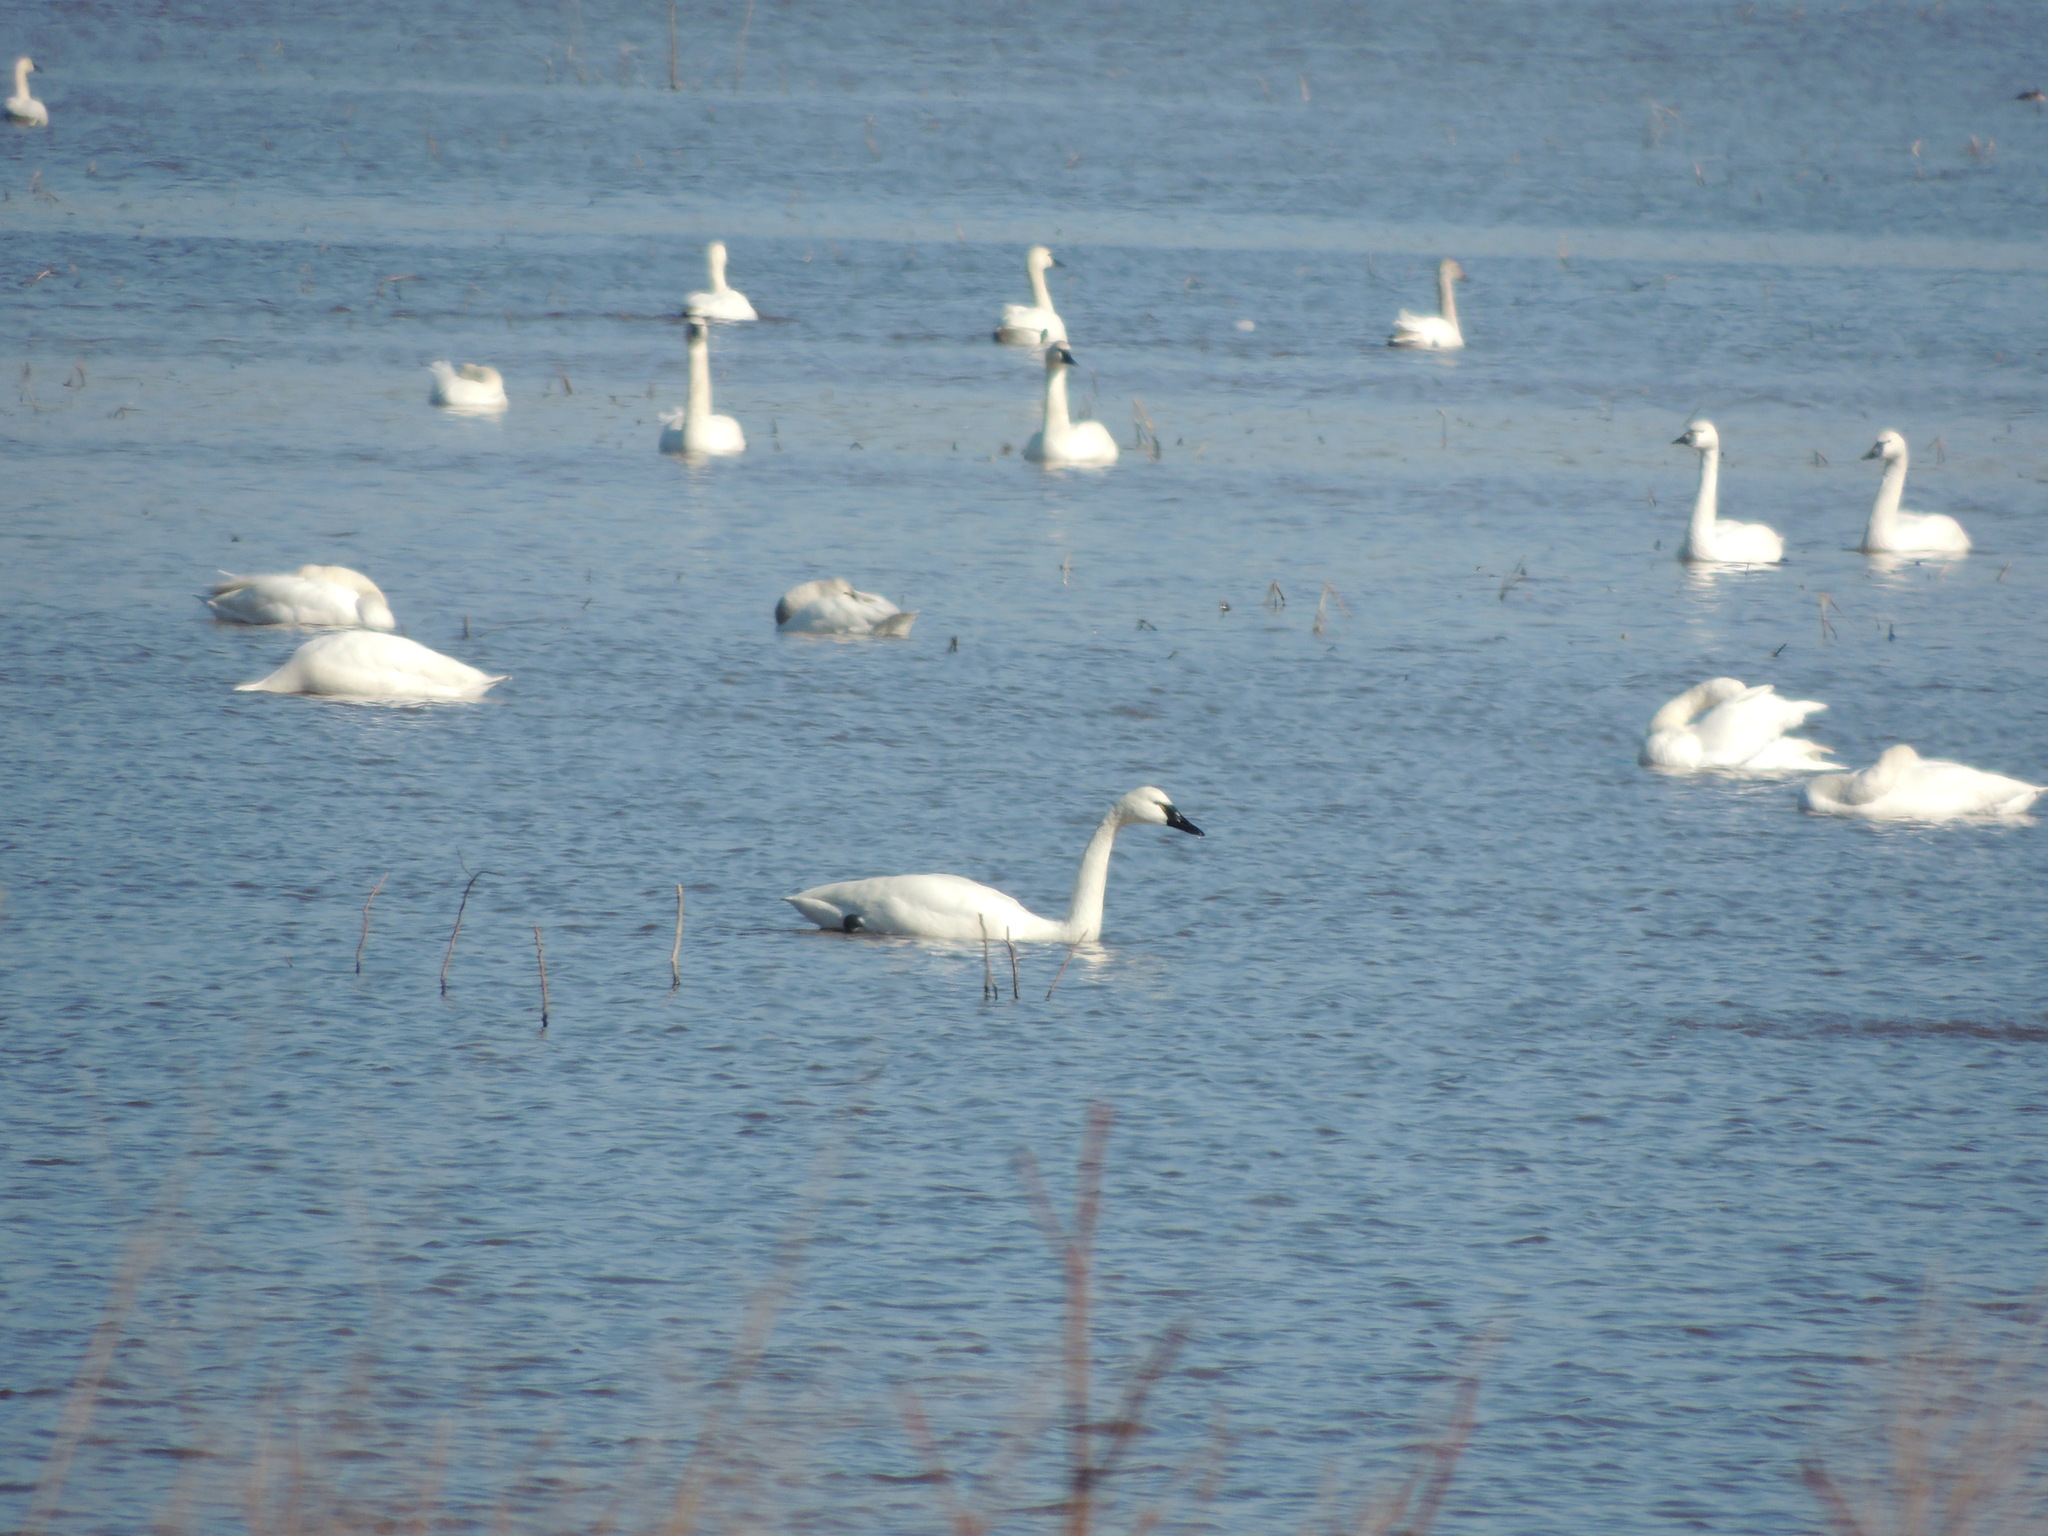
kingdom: Animalia
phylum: Chordata
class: Aves
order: Anseriformes
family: Anatidae
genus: Cygnus
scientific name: Cygnus columbianus
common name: Tundra swan
